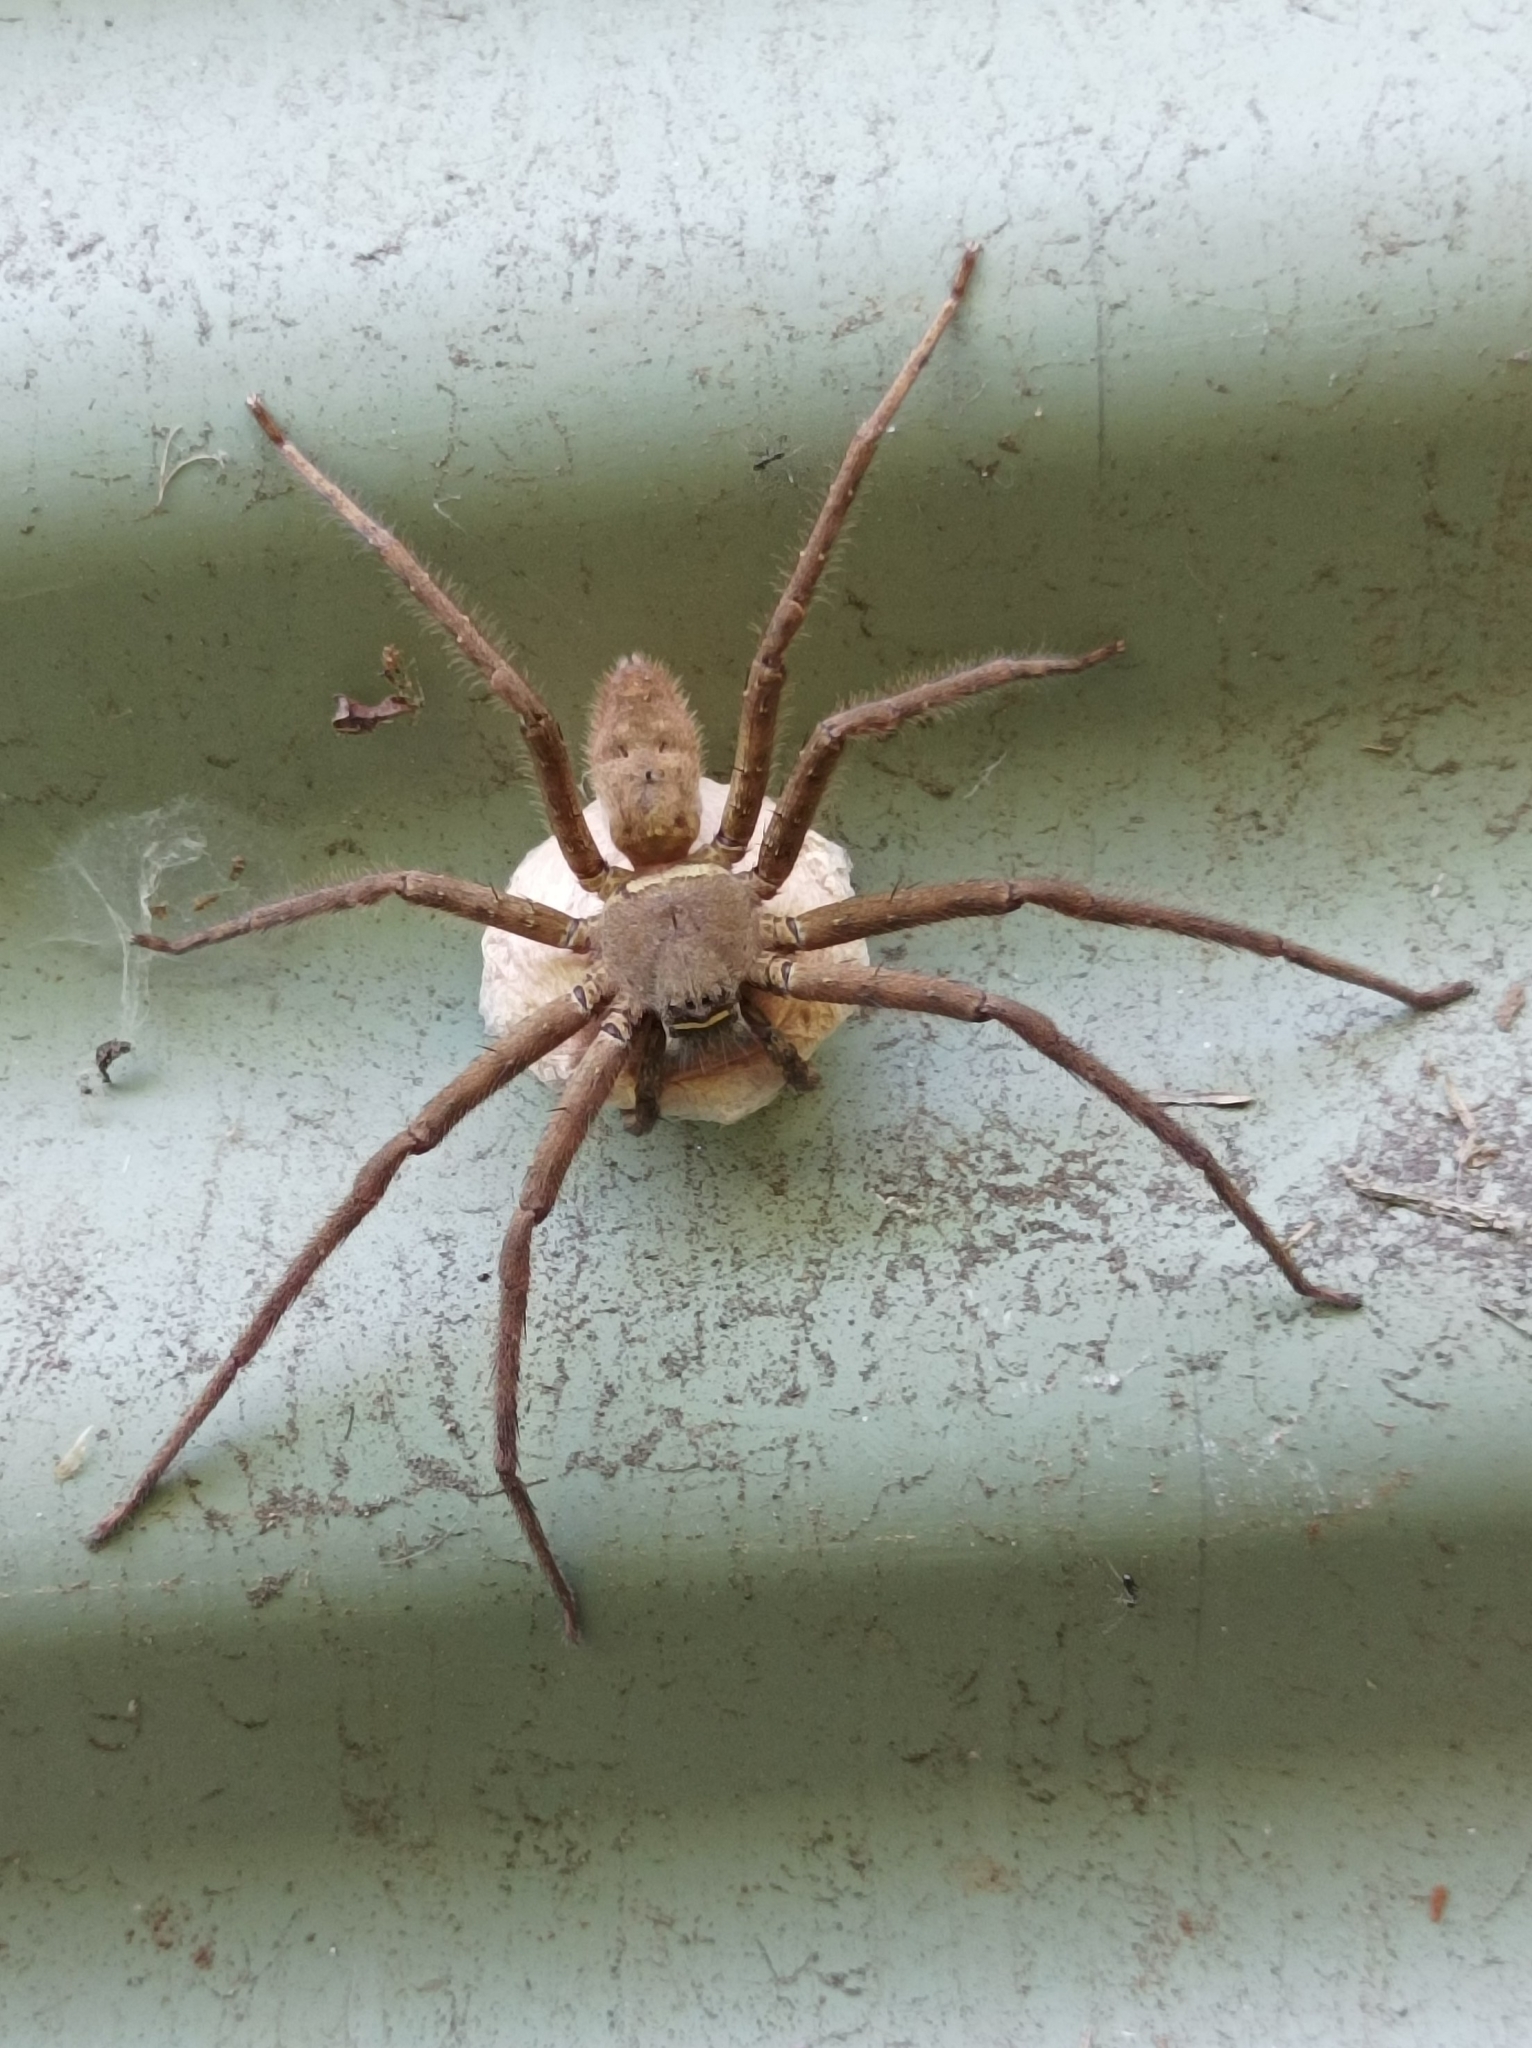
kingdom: Animalia
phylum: Arthropoda
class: Arachnida
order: Araneae
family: Sparassidae
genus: Heteropoda
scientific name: Heteropoda venatoria
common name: Huntsman spider
